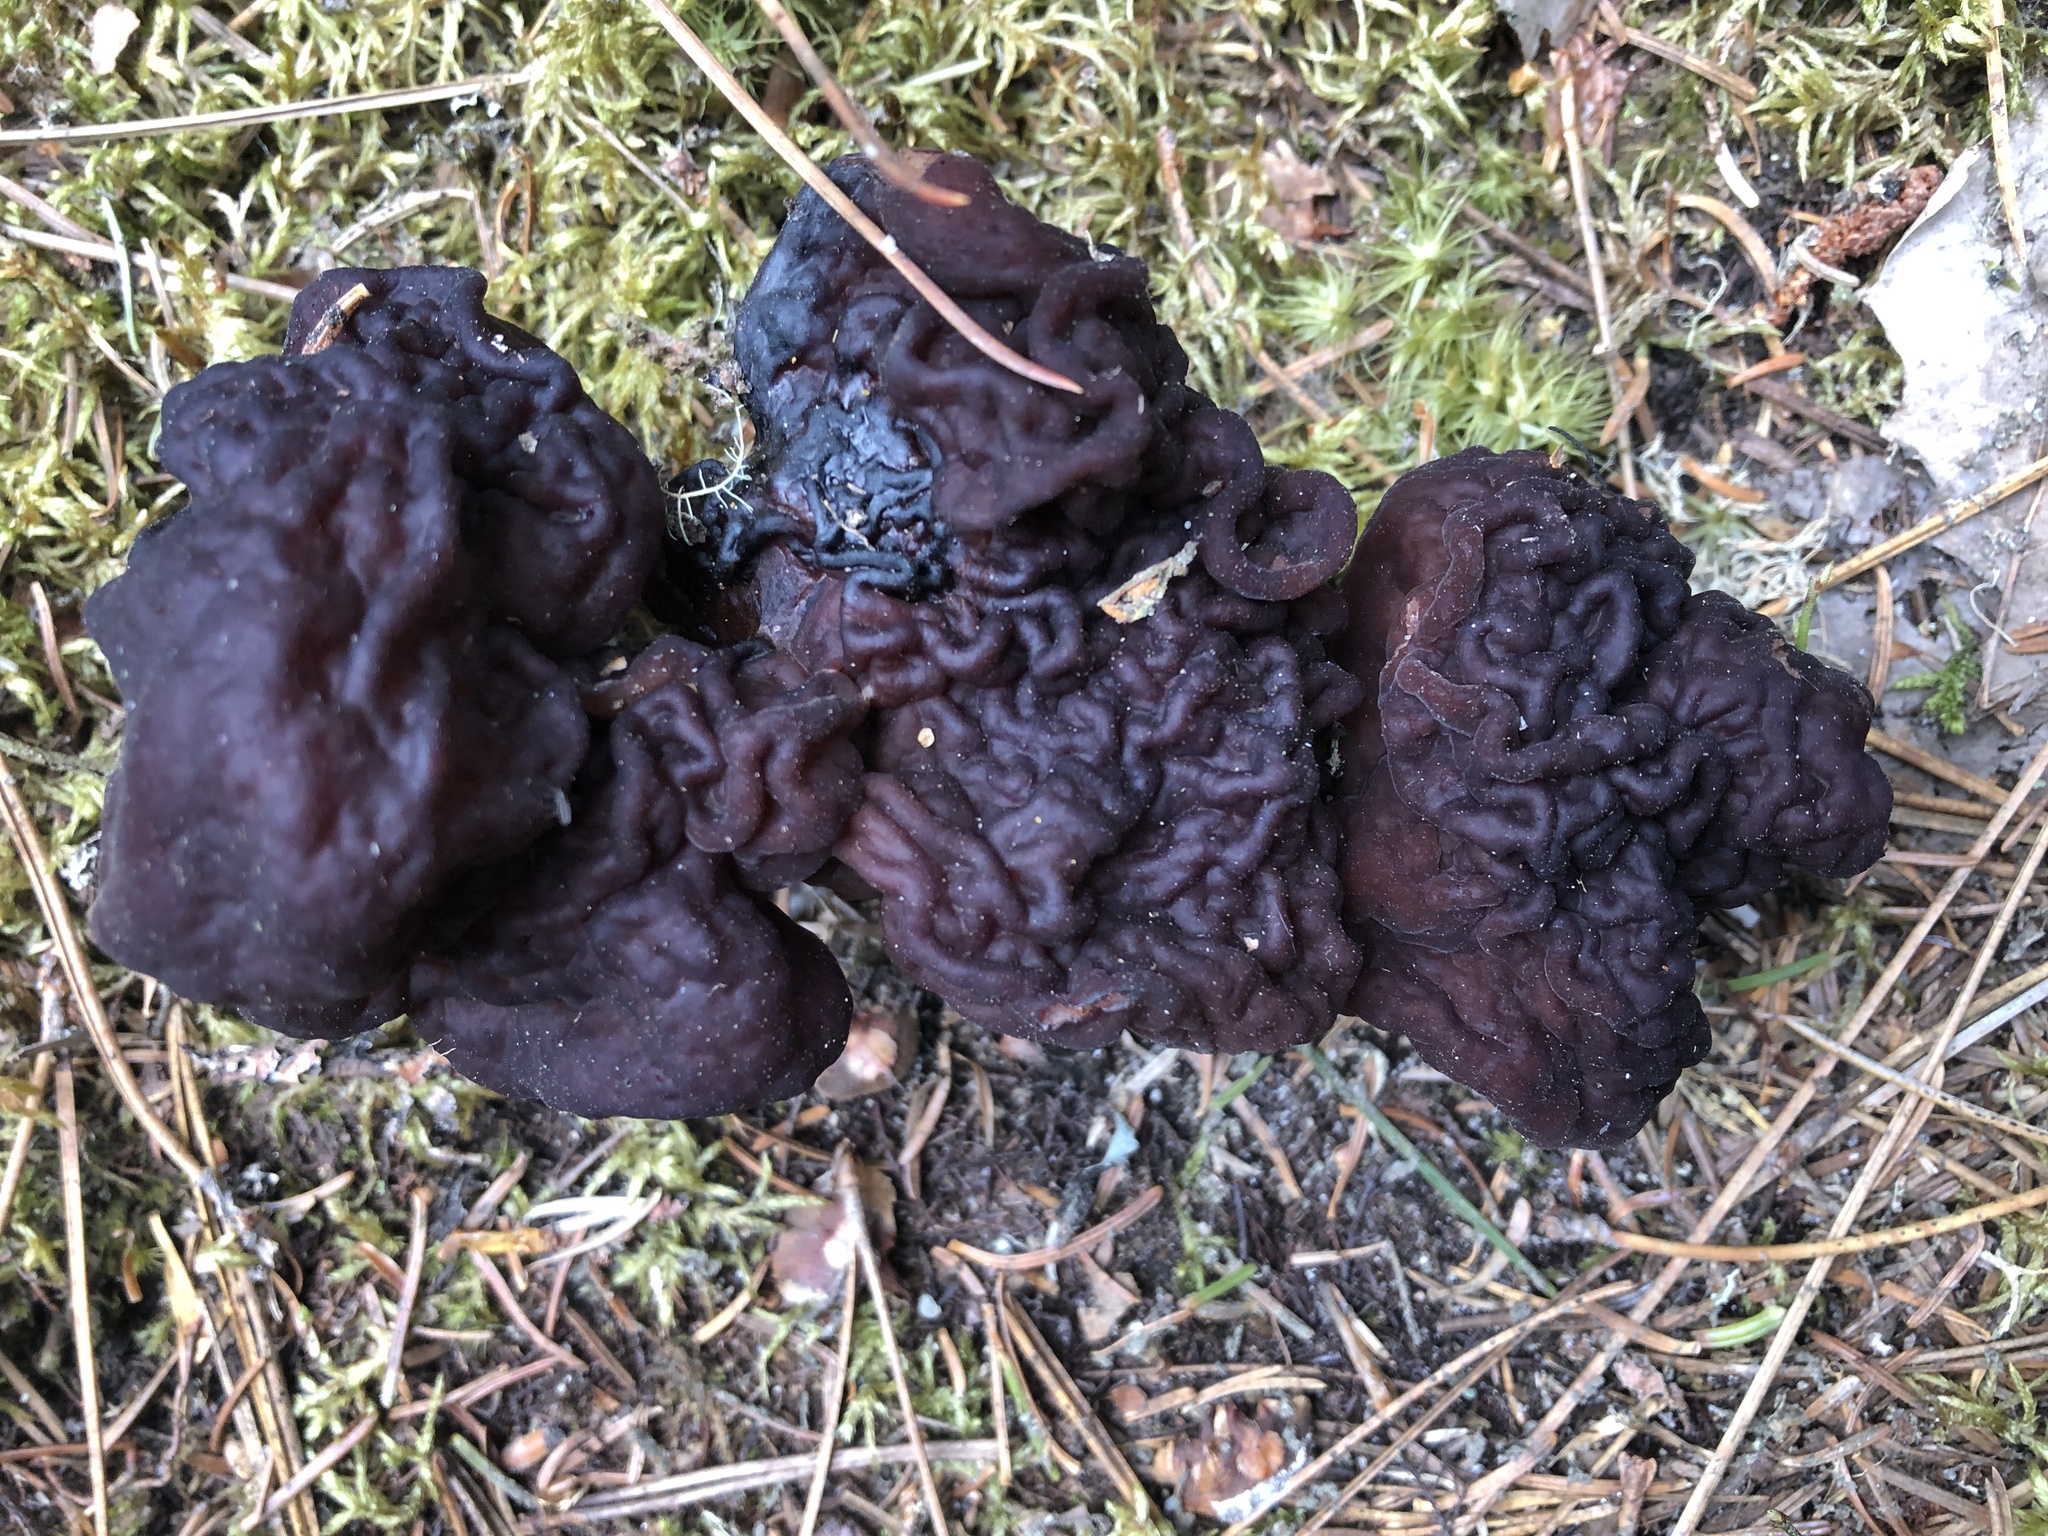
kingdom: Fungi
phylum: Ascomycota
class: Pezizomycetes
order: Pezizales
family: Discinaceae
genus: Gyromitra
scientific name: Gyromitra esculenta
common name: False morel
